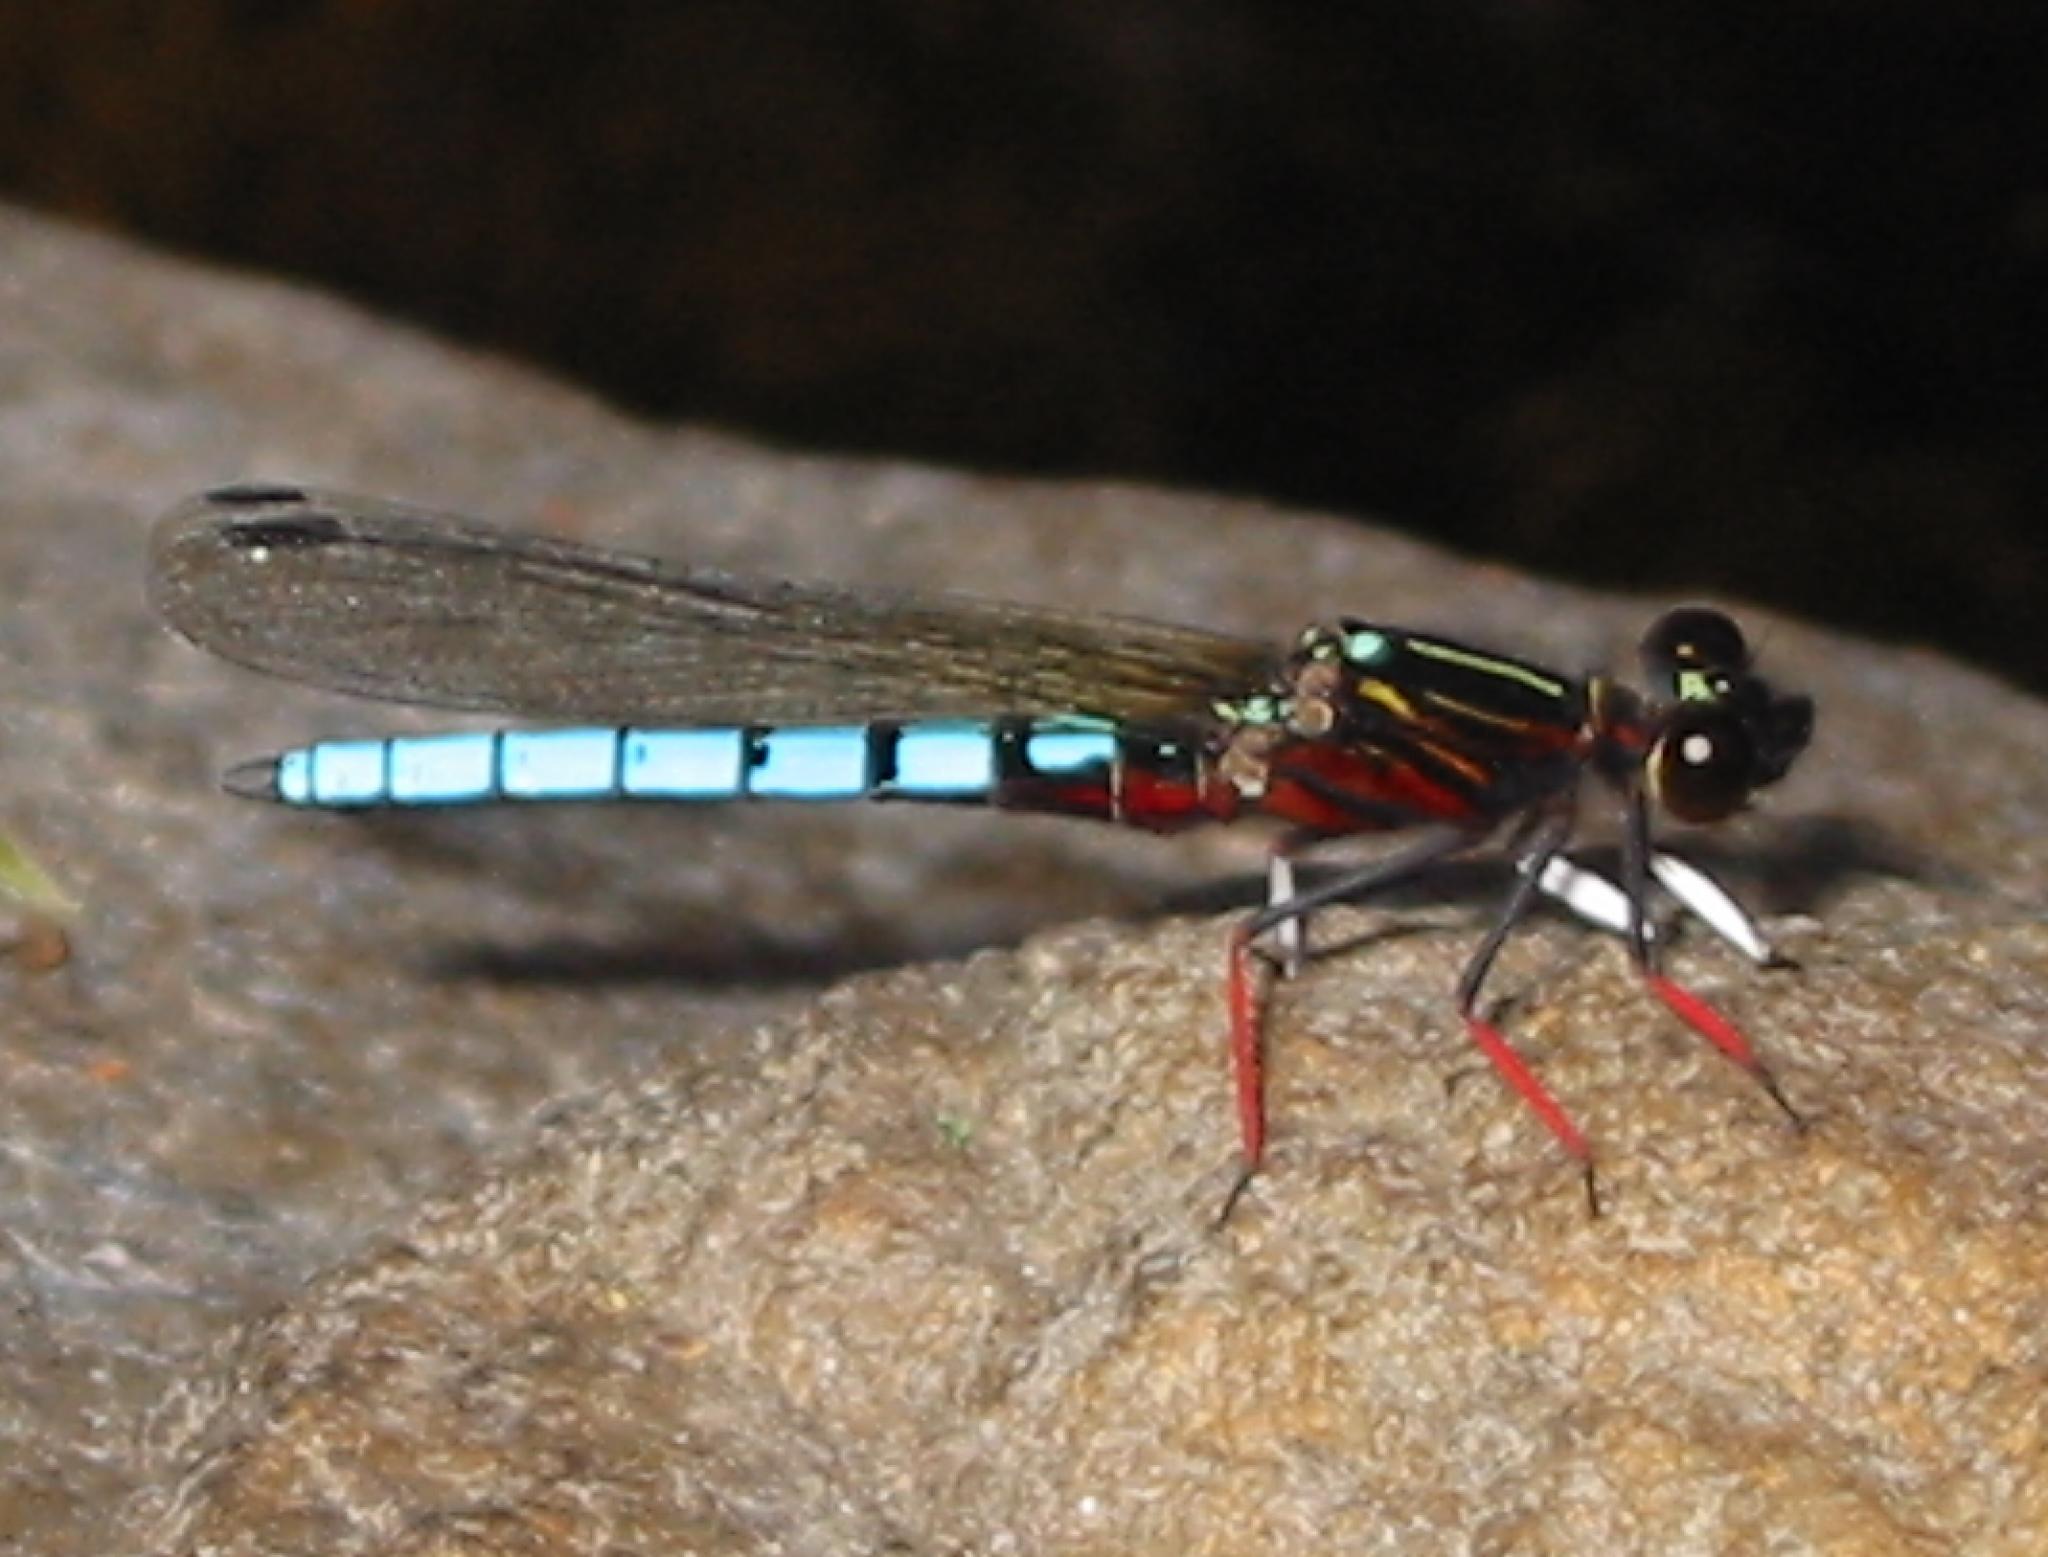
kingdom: Animalia
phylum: Arthropoda
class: Insecta
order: Odonata
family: Chlorocyphidae
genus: Platycypha
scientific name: Platycypha caligata
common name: Dancing jewel
